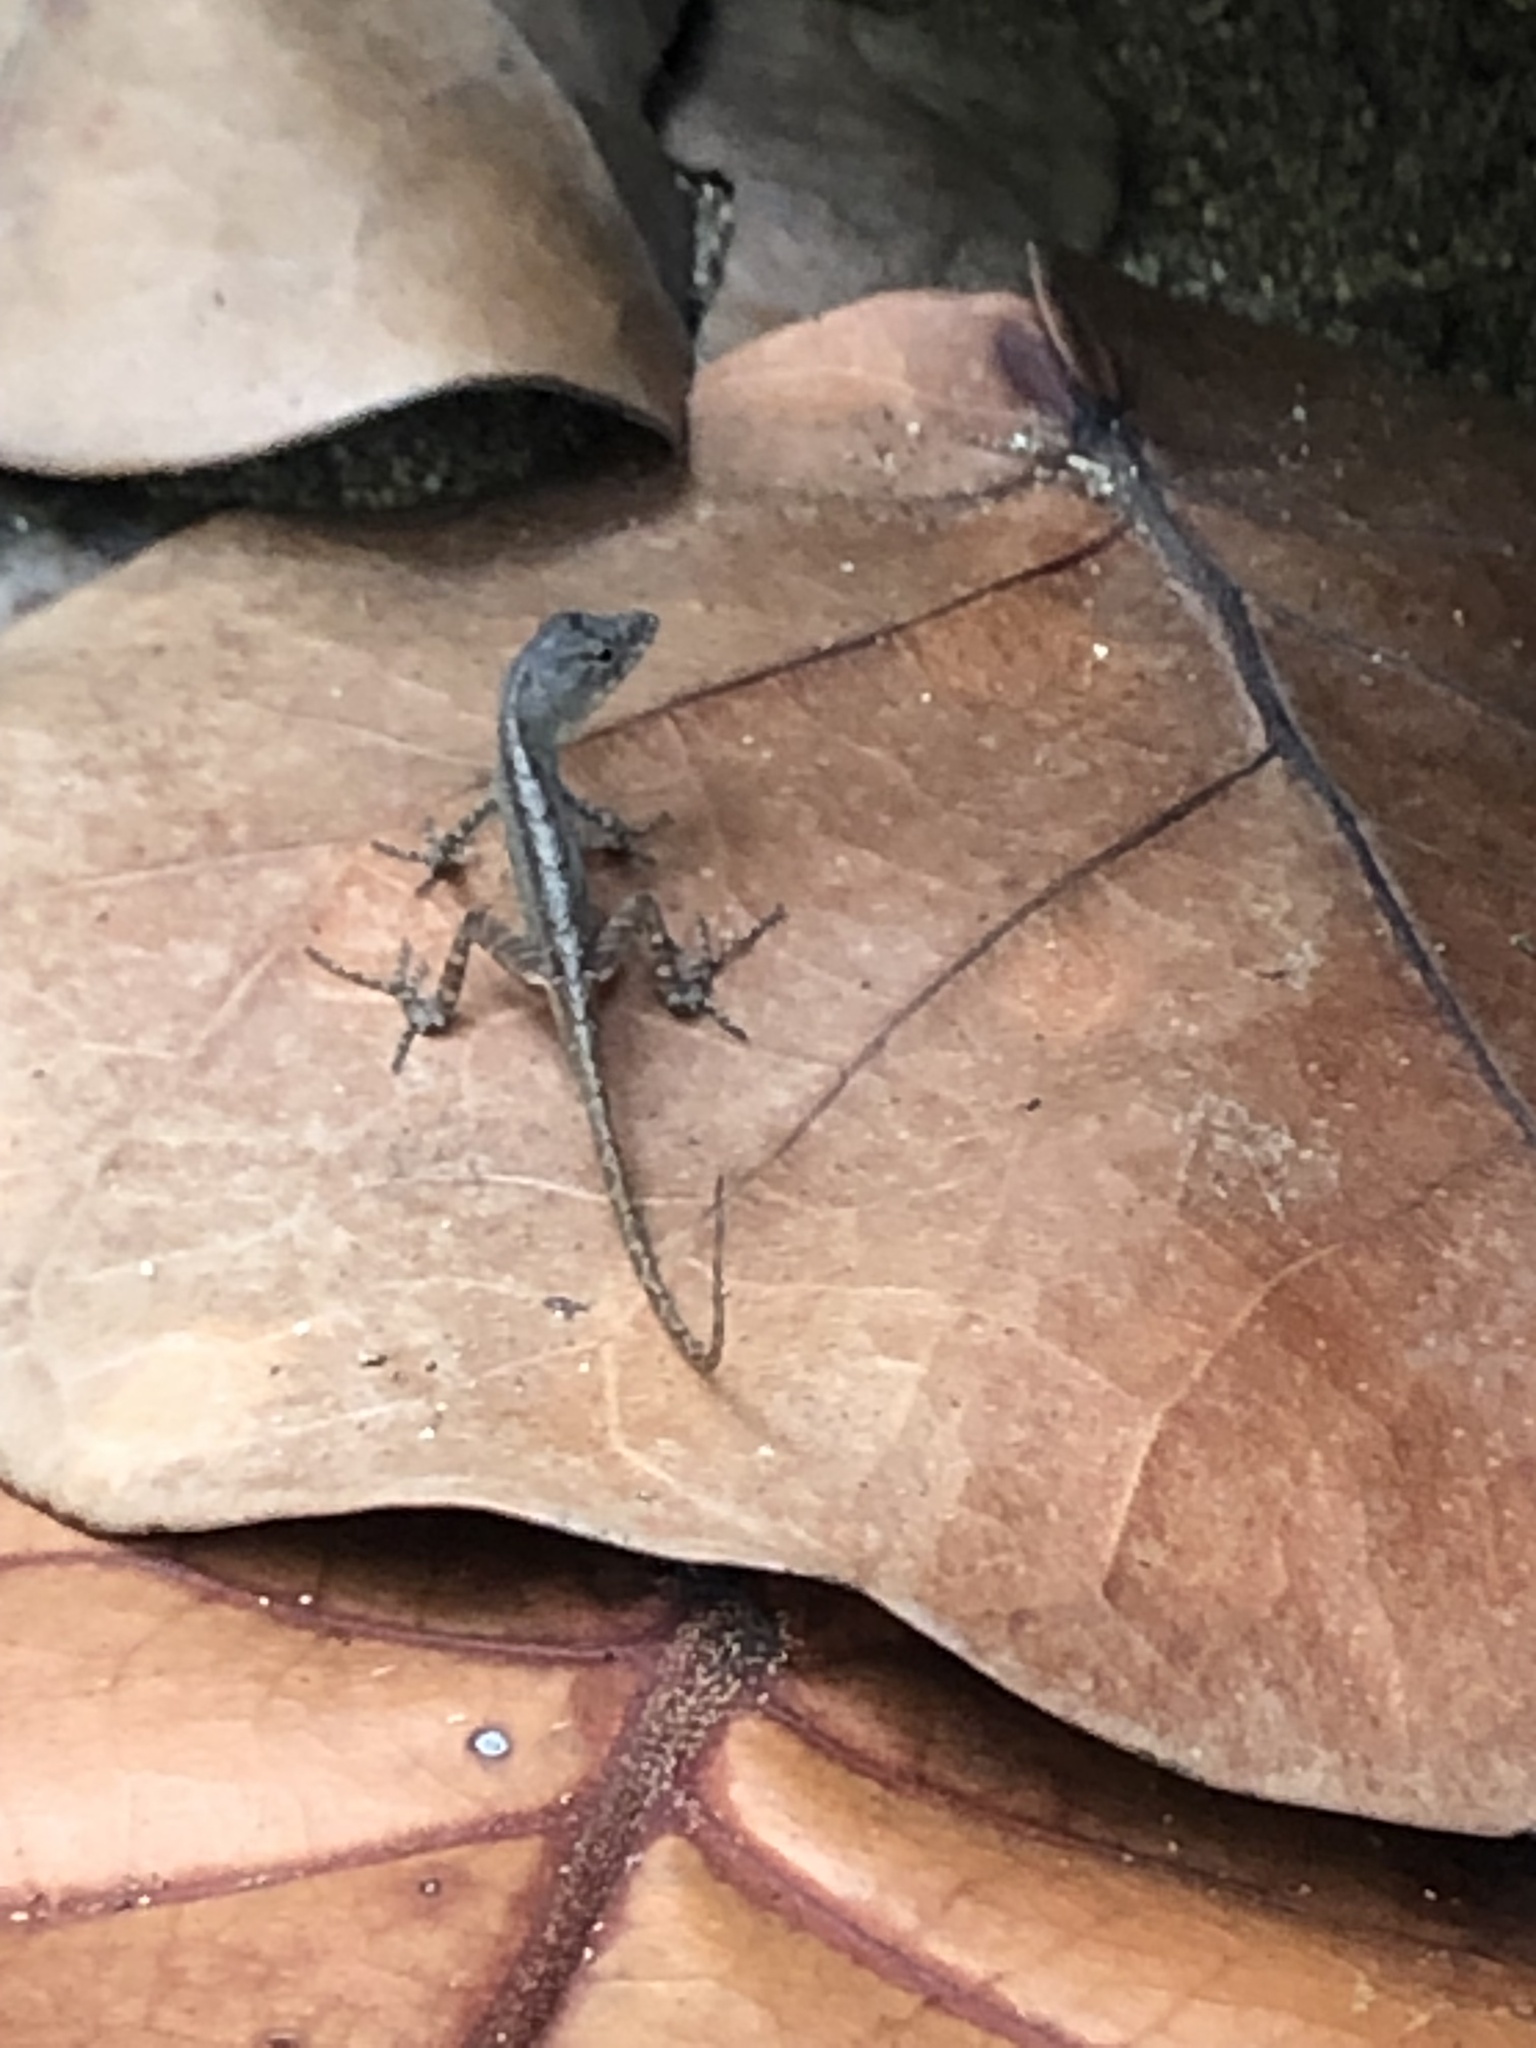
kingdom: Animalia
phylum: Chordata
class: Squamata
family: Dactyloidae
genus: Anolis
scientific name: Anolis sagrei
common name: Brown anole
